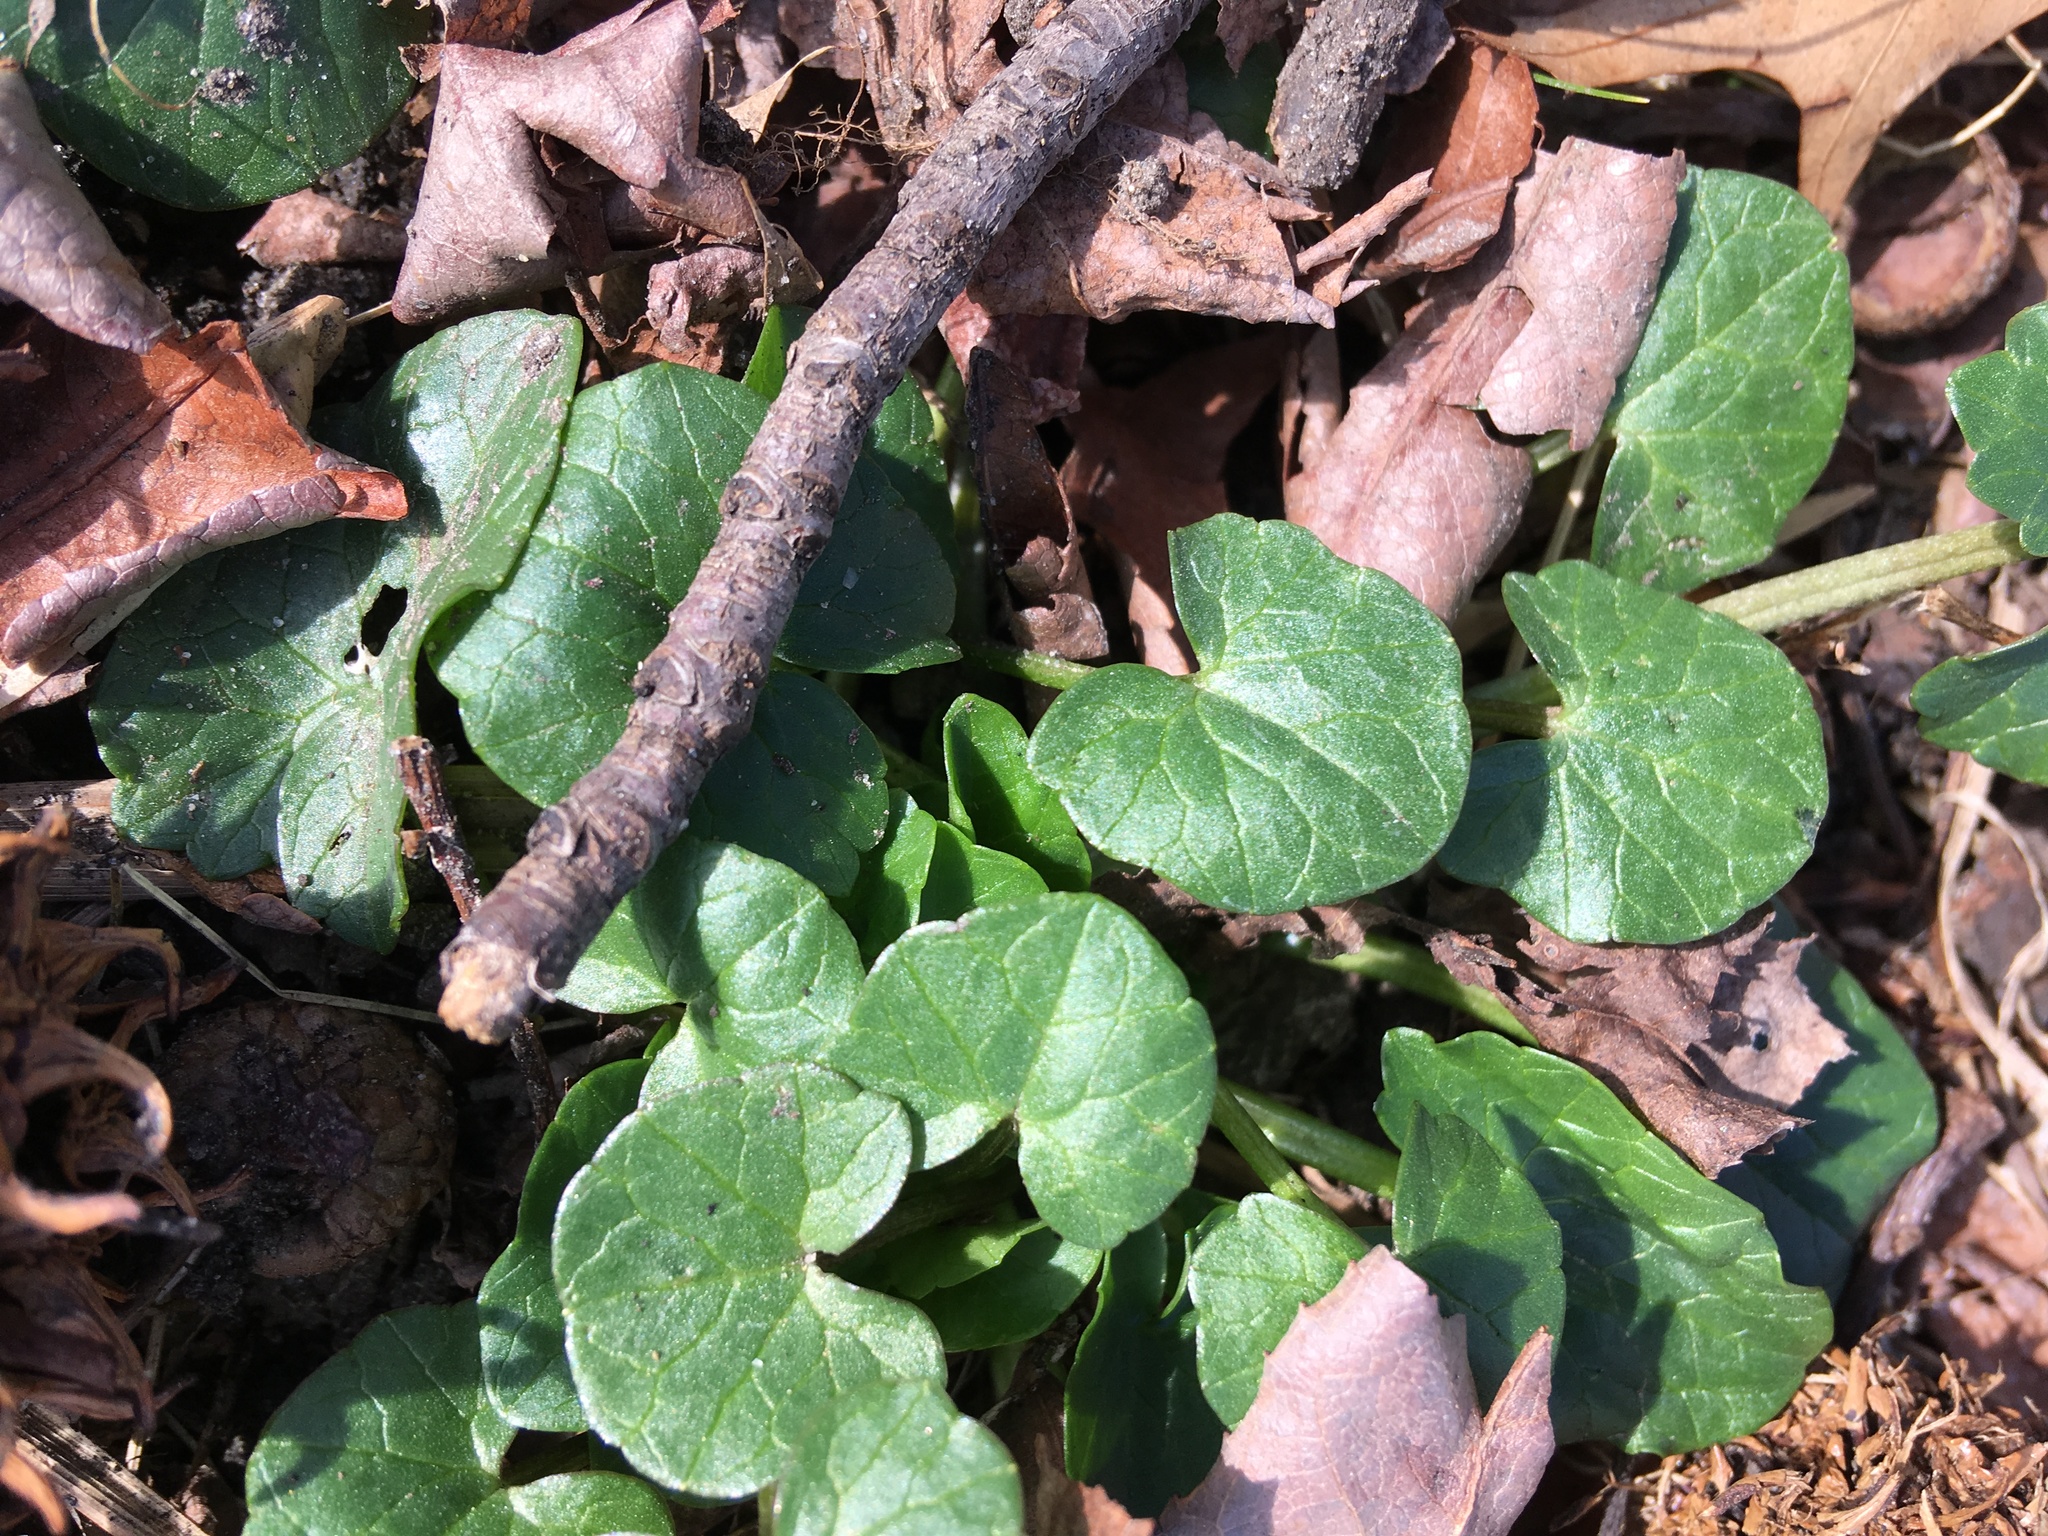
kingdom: Plantae
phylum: Tracheophyta
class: Magnoliopsida
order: Ranunculales
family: Ranunculaceae
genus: Ficaria
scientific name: Ficaria verna
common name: Lesser celandine
